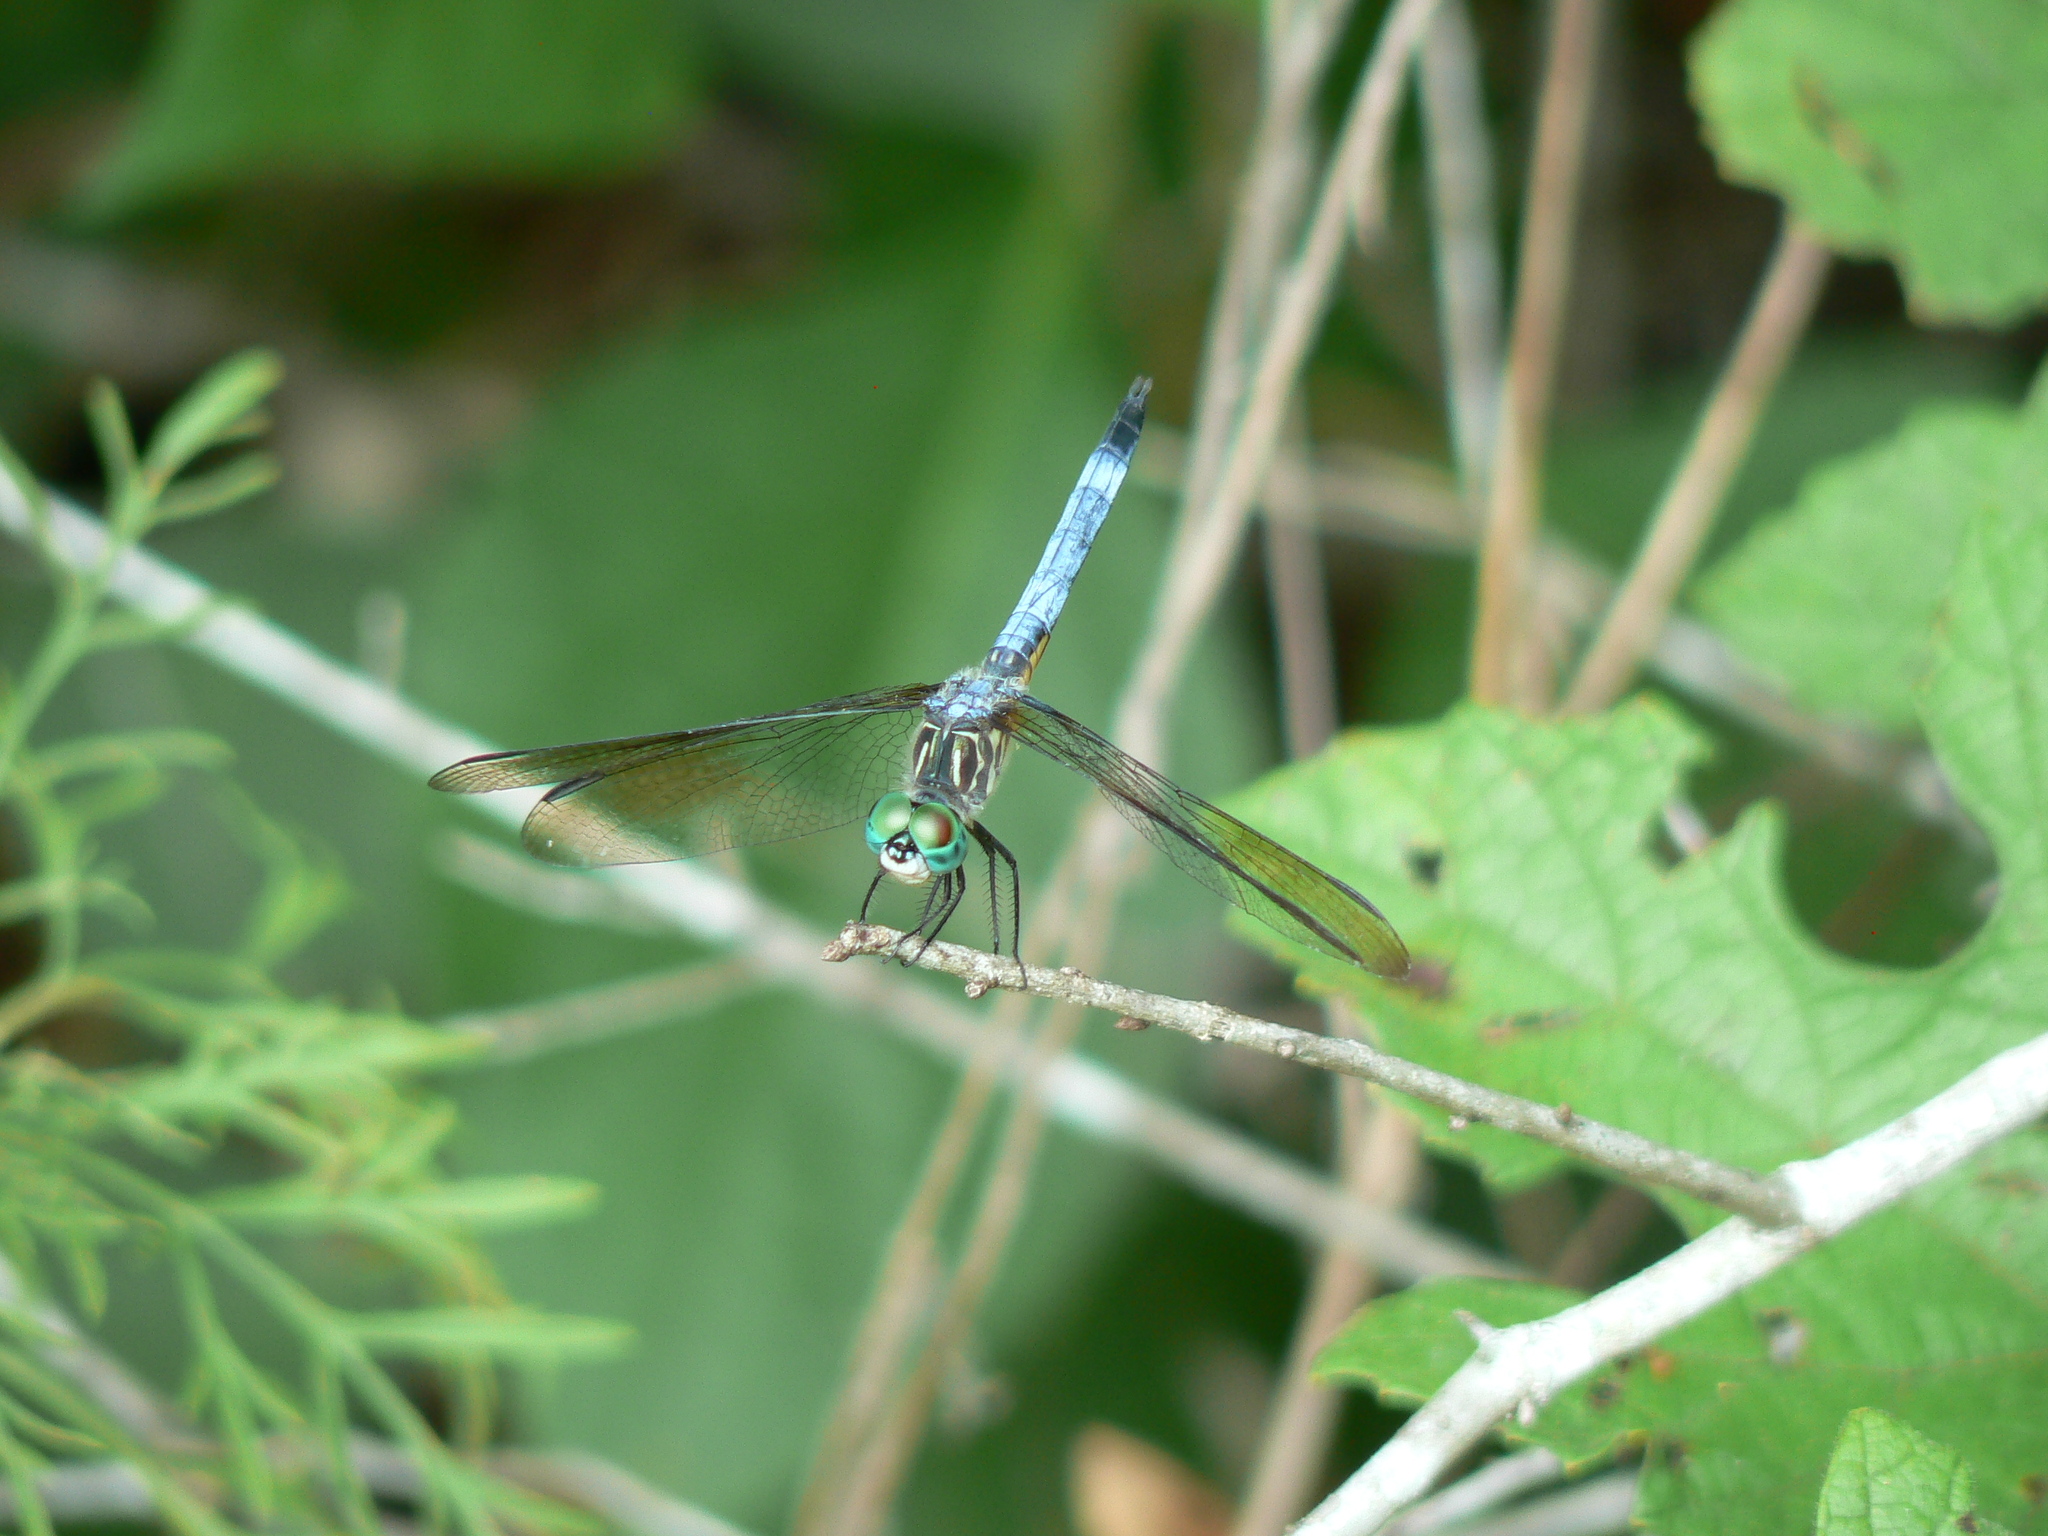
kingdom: Animalia
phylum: Arthropoda
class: Insecta
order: Odonata
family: Libellulidae
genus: Pachydiplax
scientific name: Pachydiplax longipennis
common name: Blue dasher
